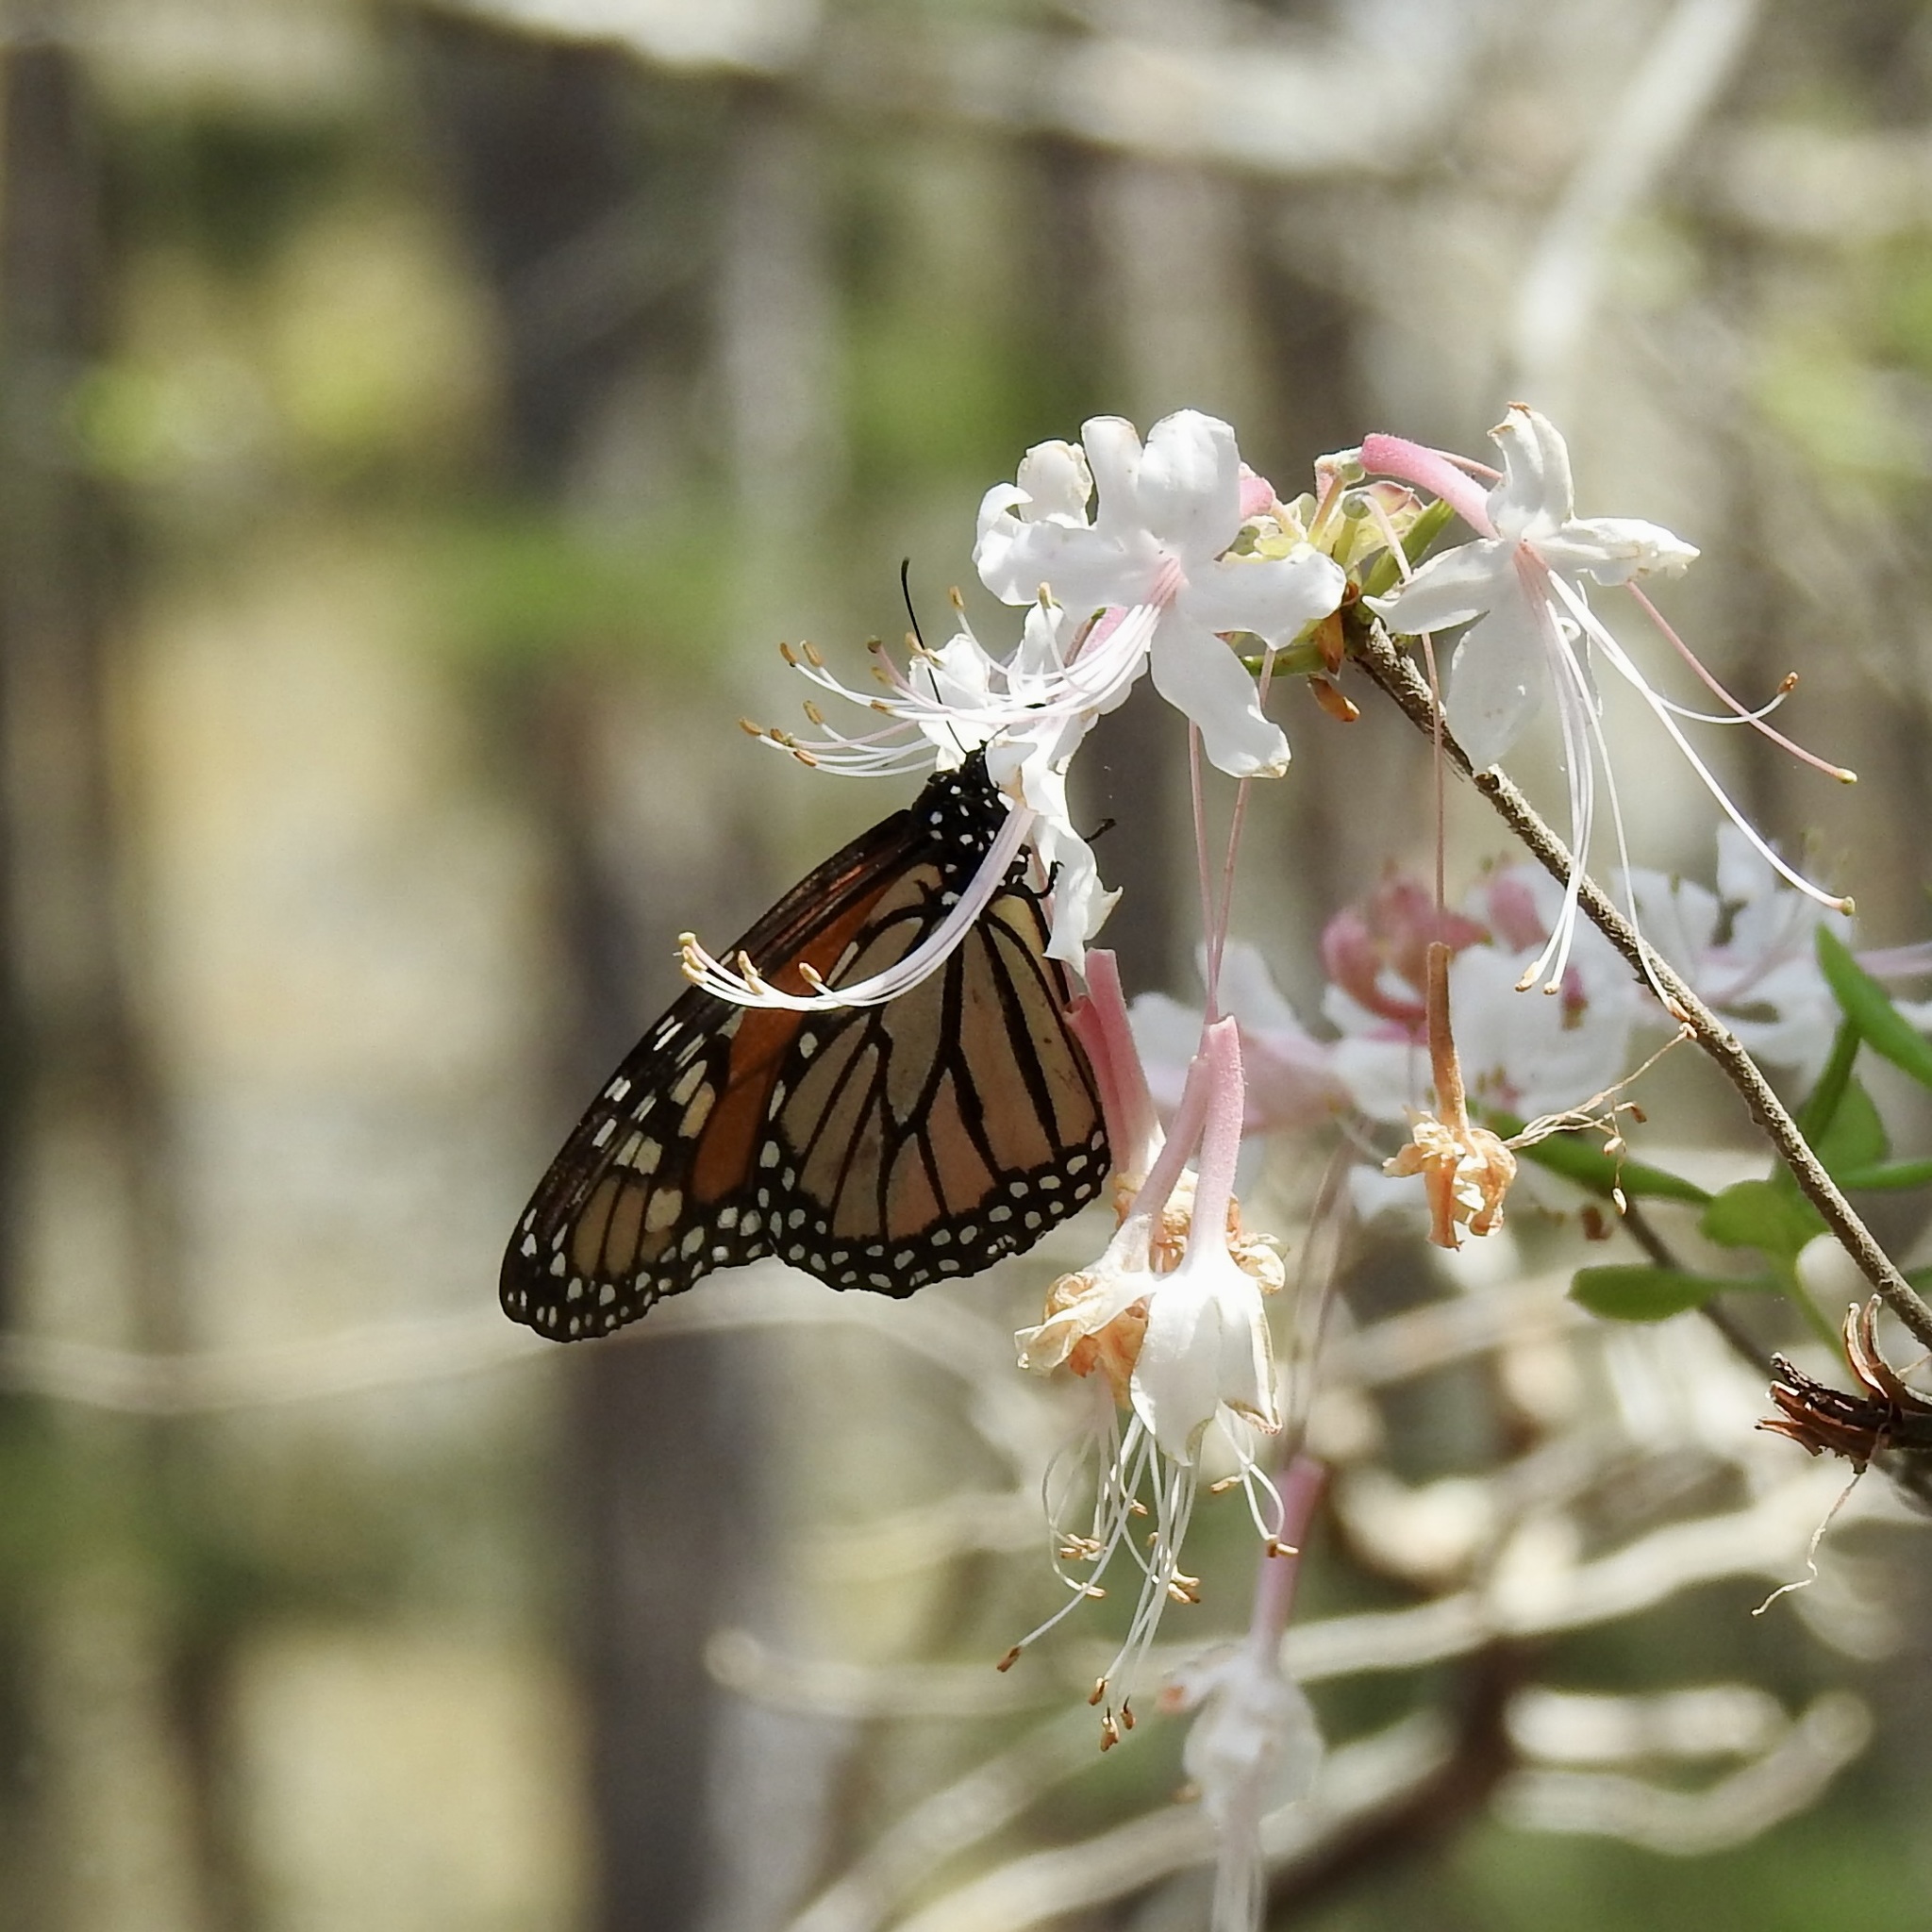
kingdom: Animalia
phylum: Arthropoda
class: Insecta
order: Lepidoptera
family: Nymphalidae
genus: Danaus
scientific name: Danaus plexippus
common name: Monarch
